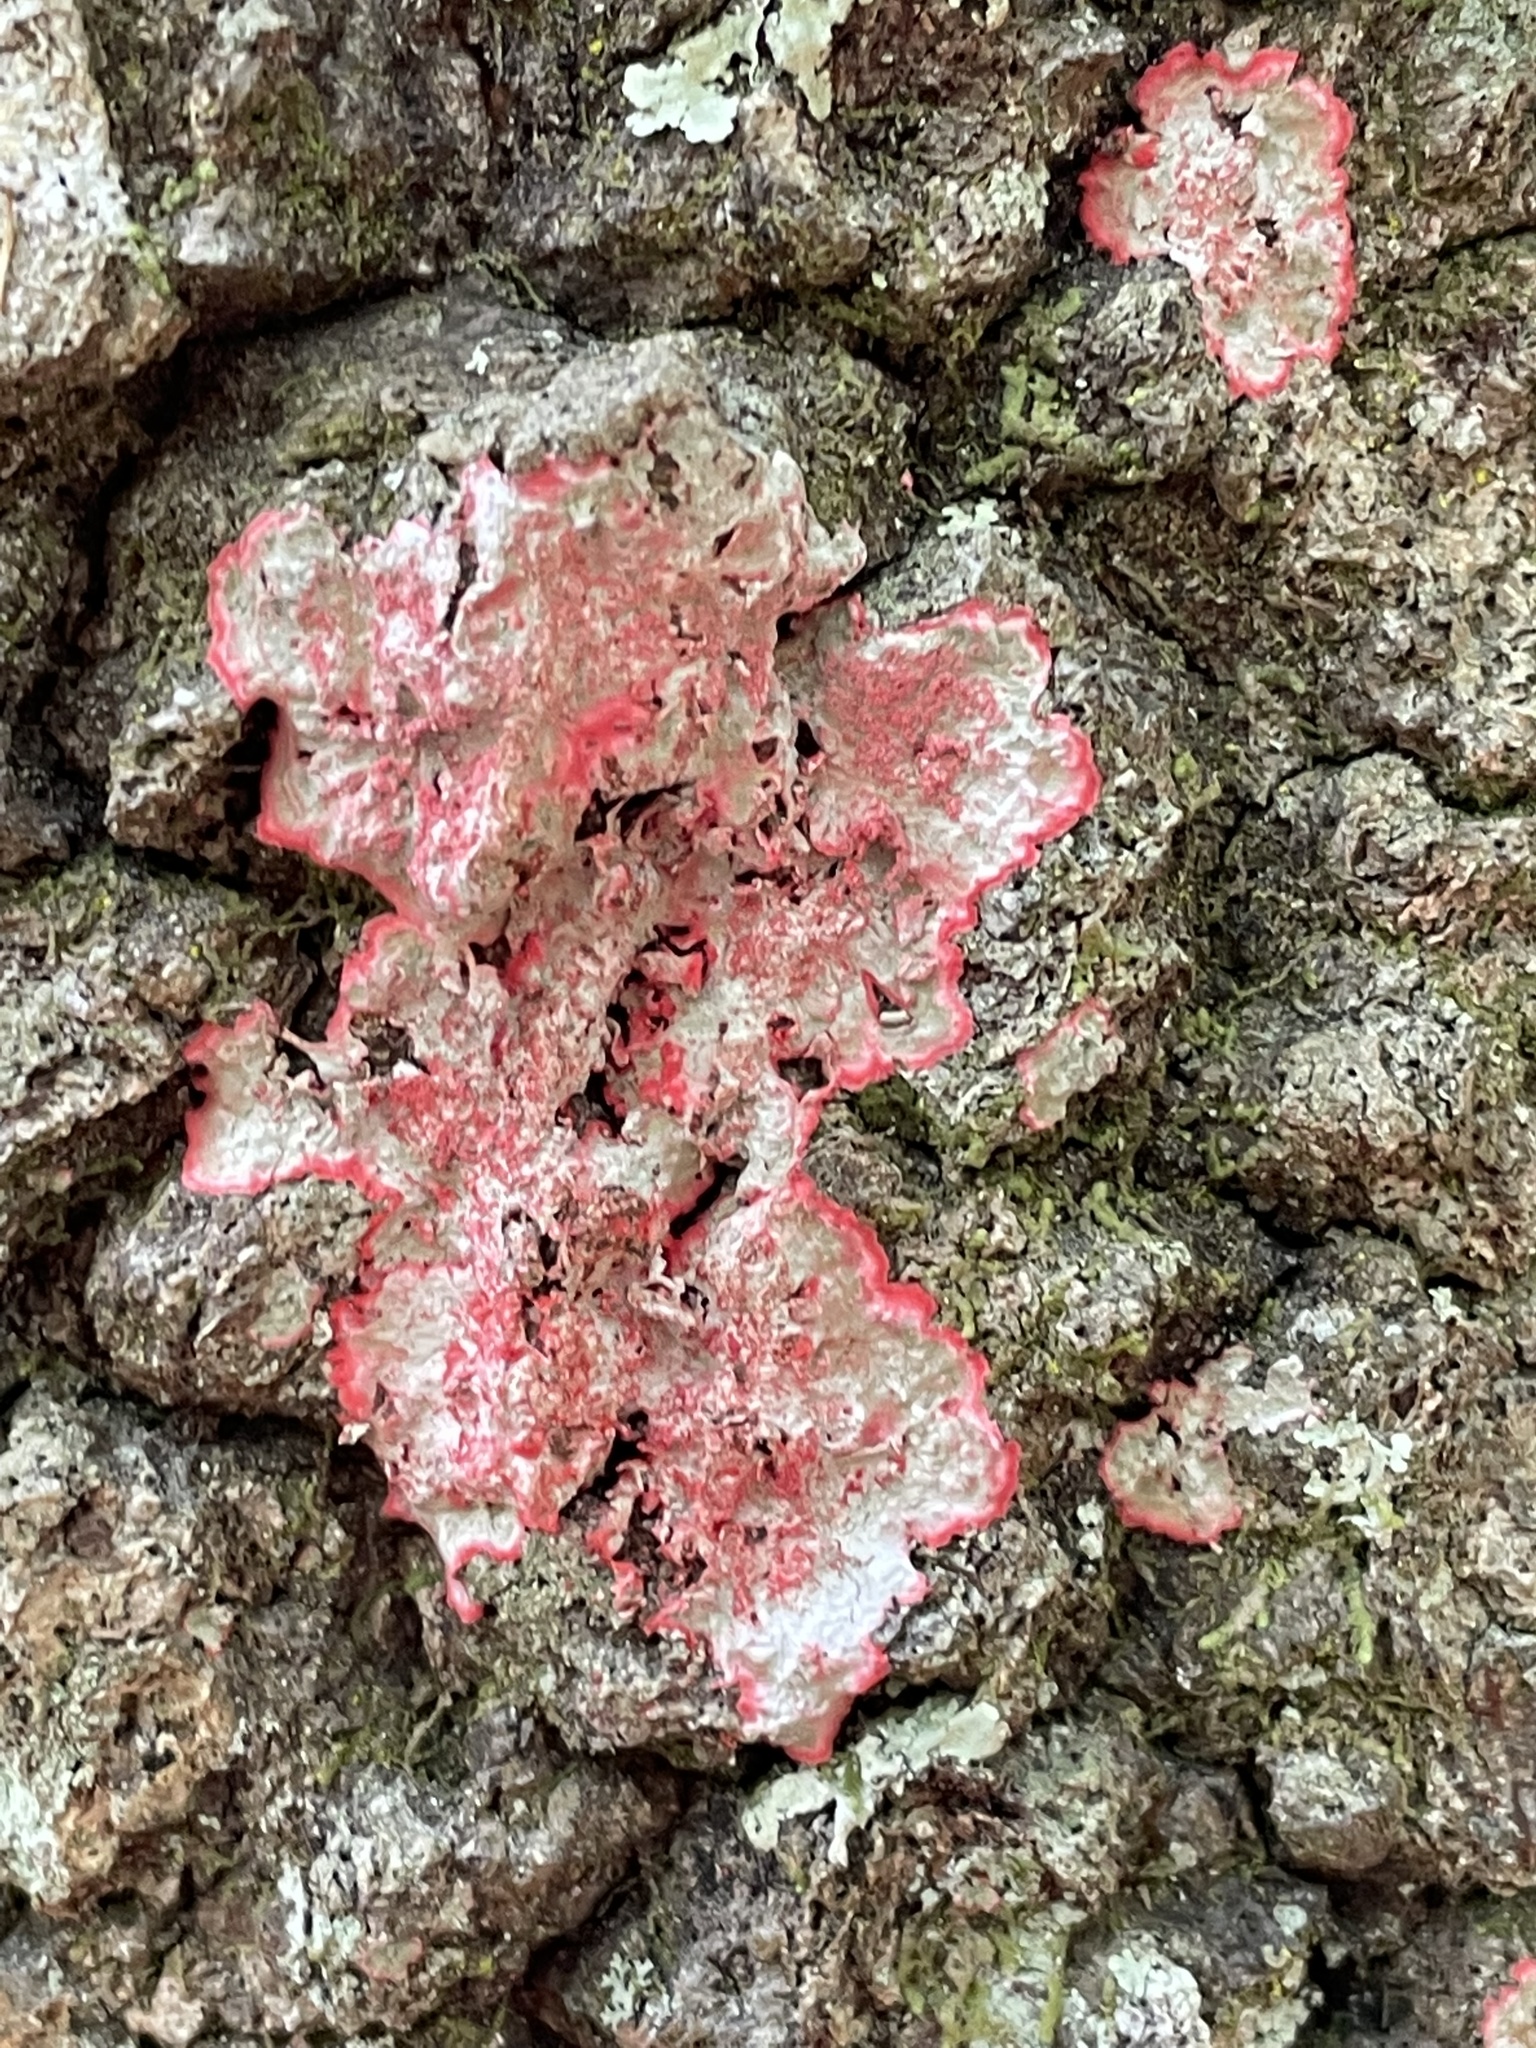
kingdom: Fungi
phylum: Ascomycota
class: Arthoniomycetes
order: Arthoniales
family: Arthoniaceae
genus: Herpothallon
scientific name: Herpothallon rubrocinctum
